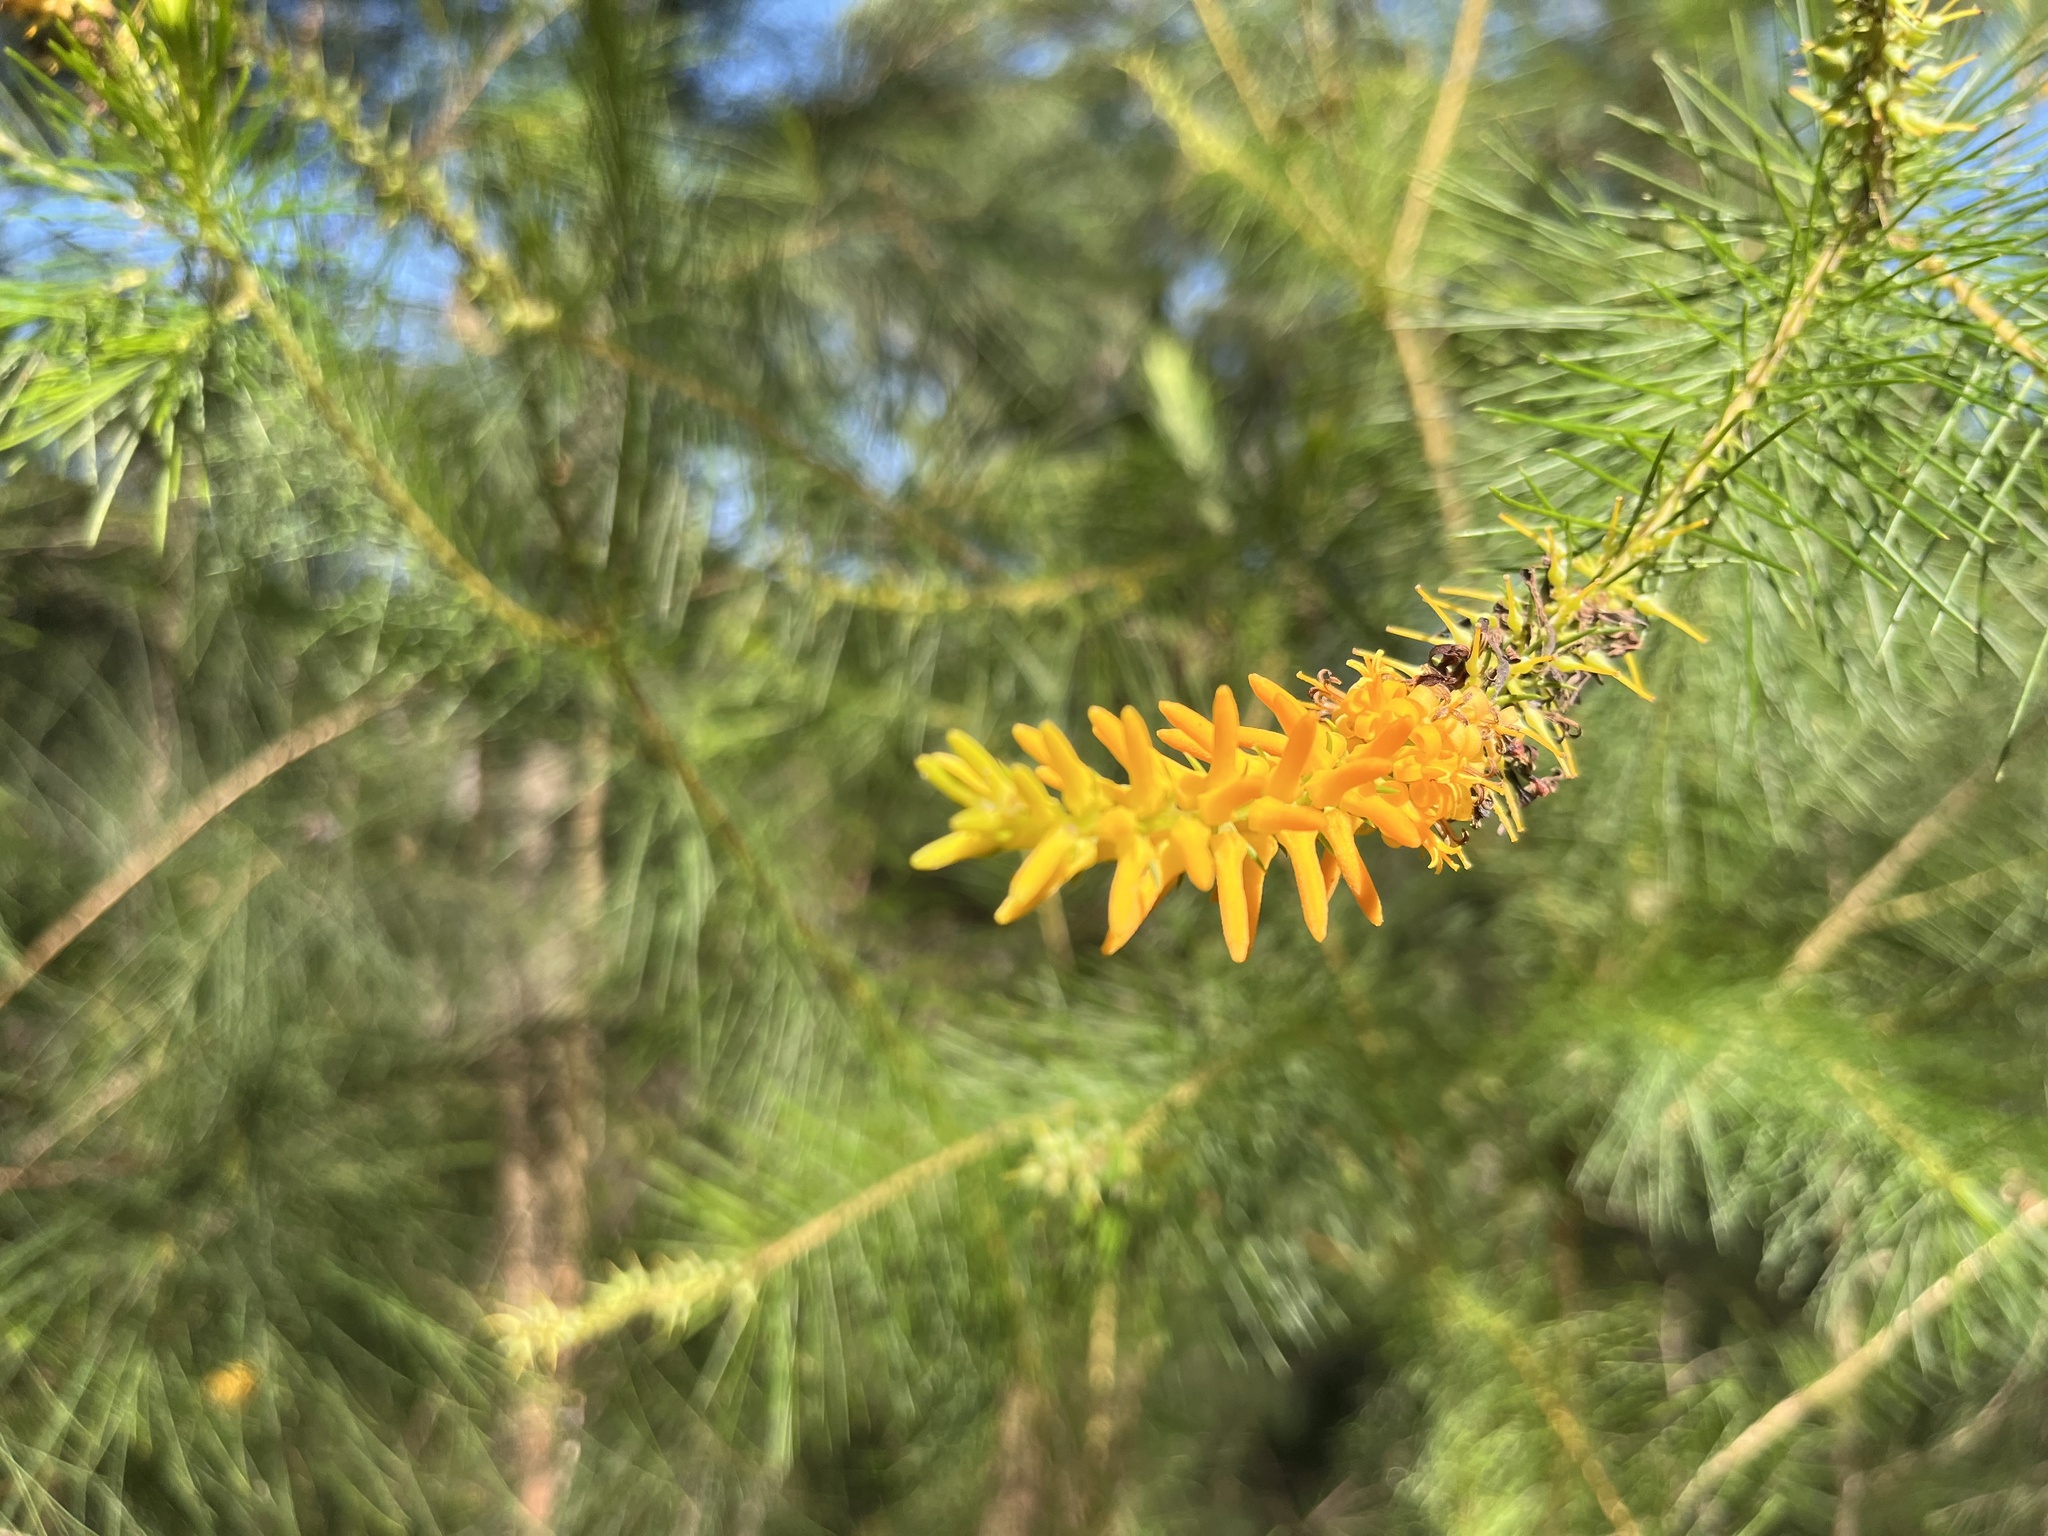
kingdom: Plantae
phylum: Tracheophyta
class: Magnoliopsida
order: Proteales
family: Proteaceae
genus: Persoonia
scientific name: Persoonia pinifolia
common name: Pine-leaf geebung
